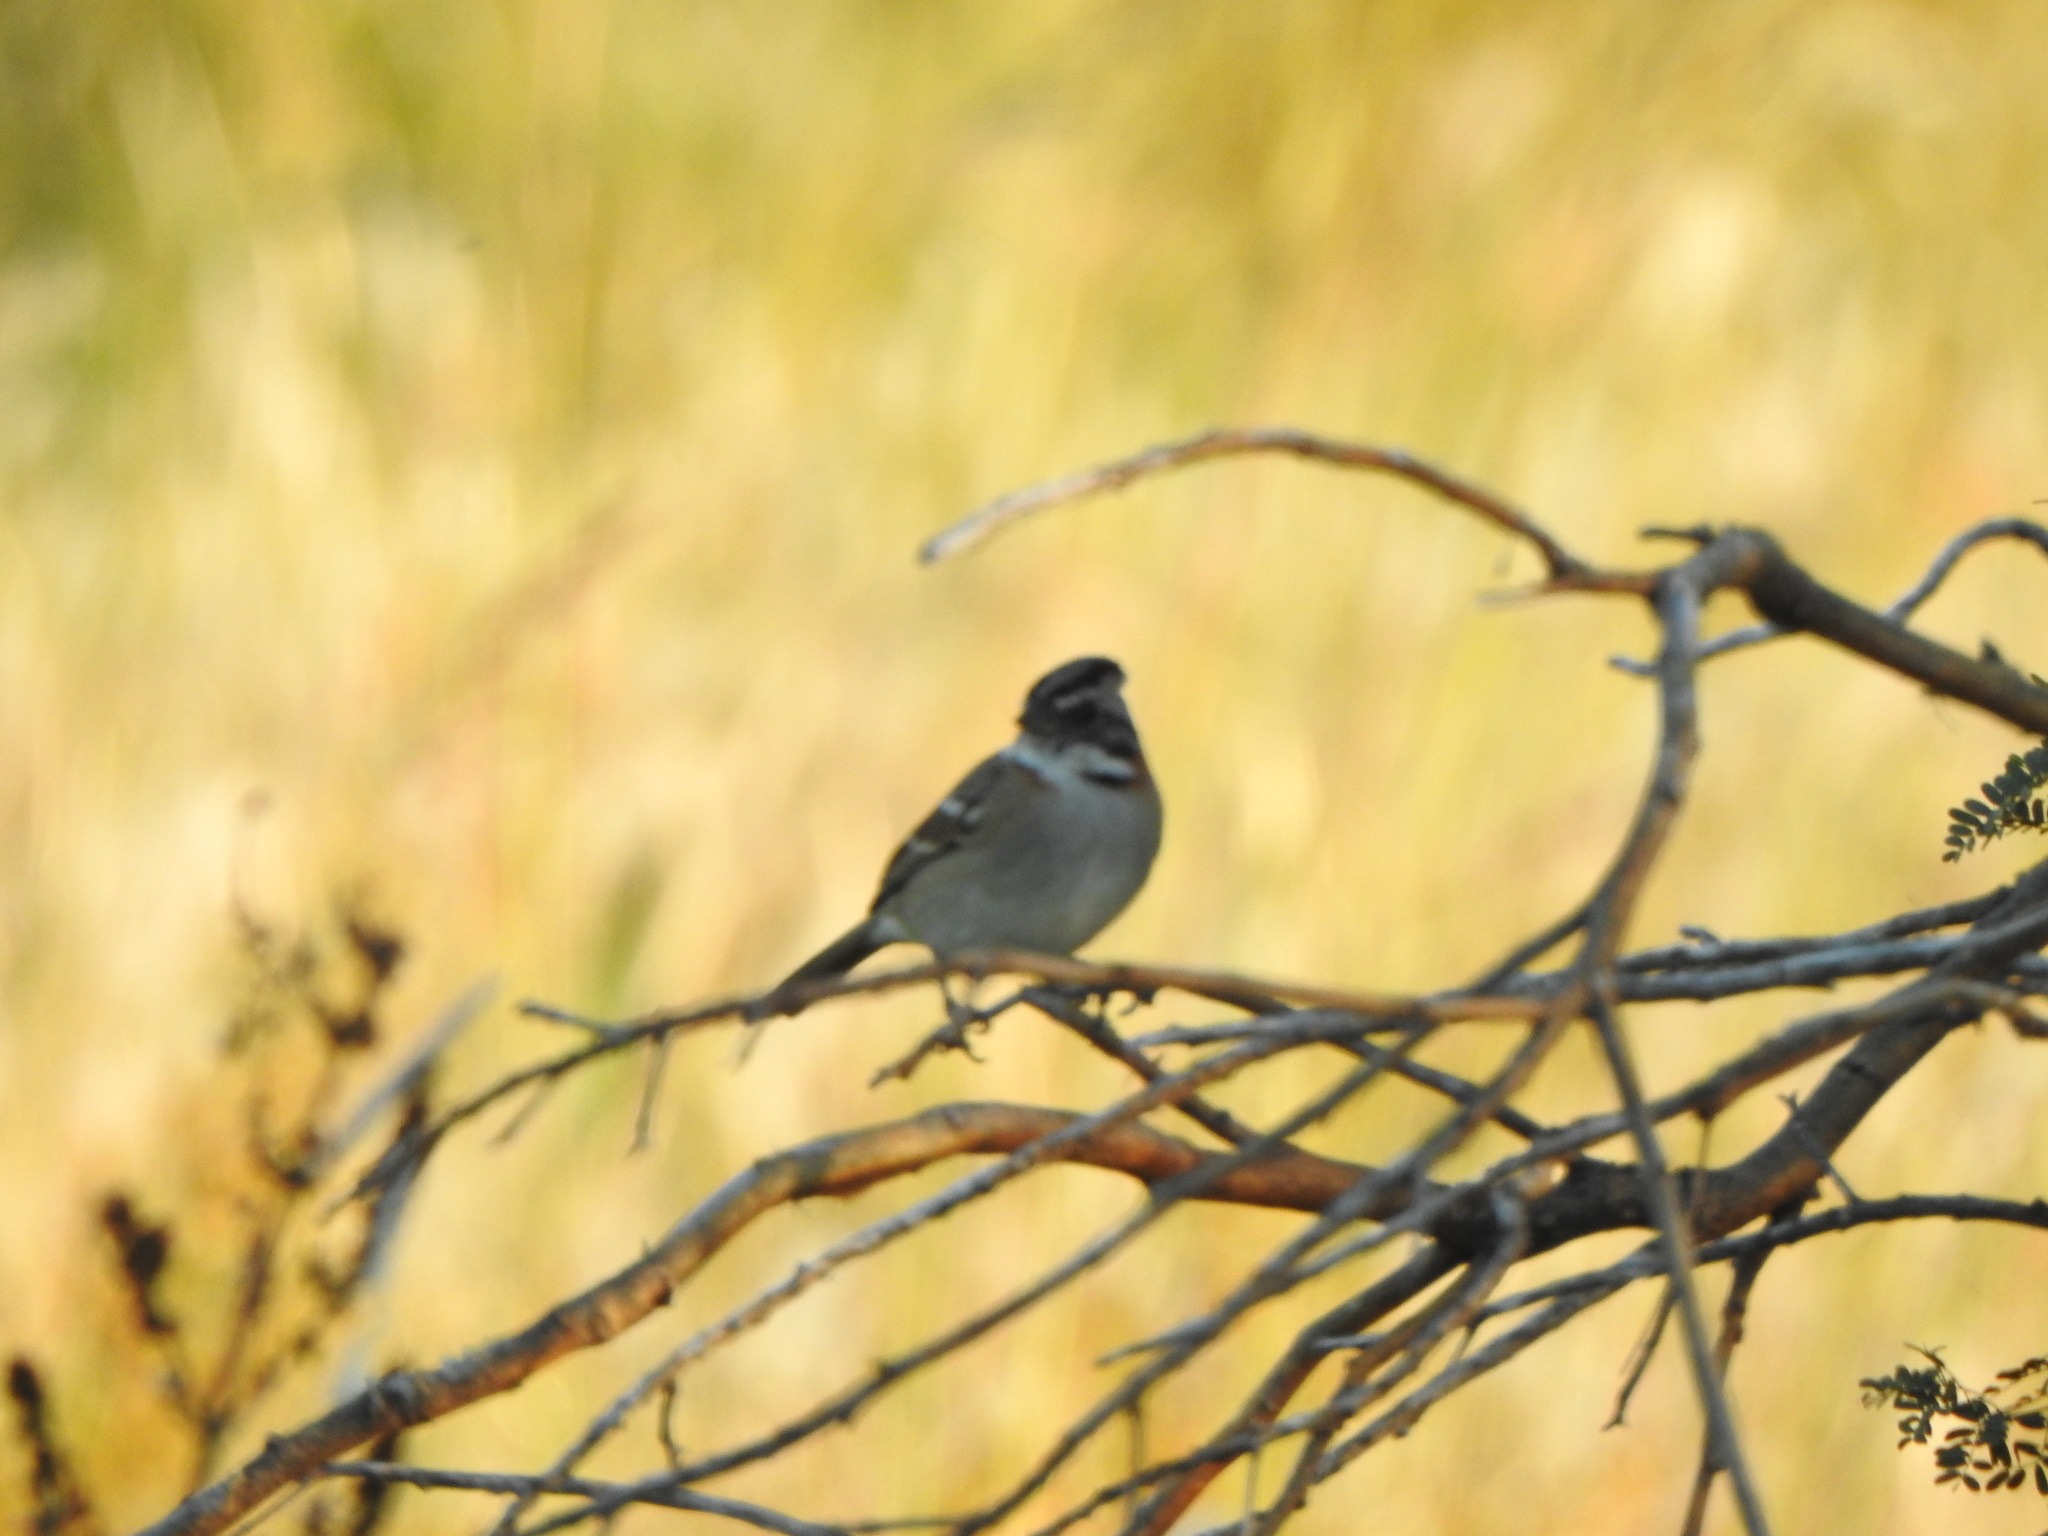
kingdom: Animalia
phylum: Chordata
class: Aves
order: Passeriformes
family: Passerellidae
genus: Zonotrichia
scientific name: Zonotrichia capensis
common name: Rufous-collared sparrow
